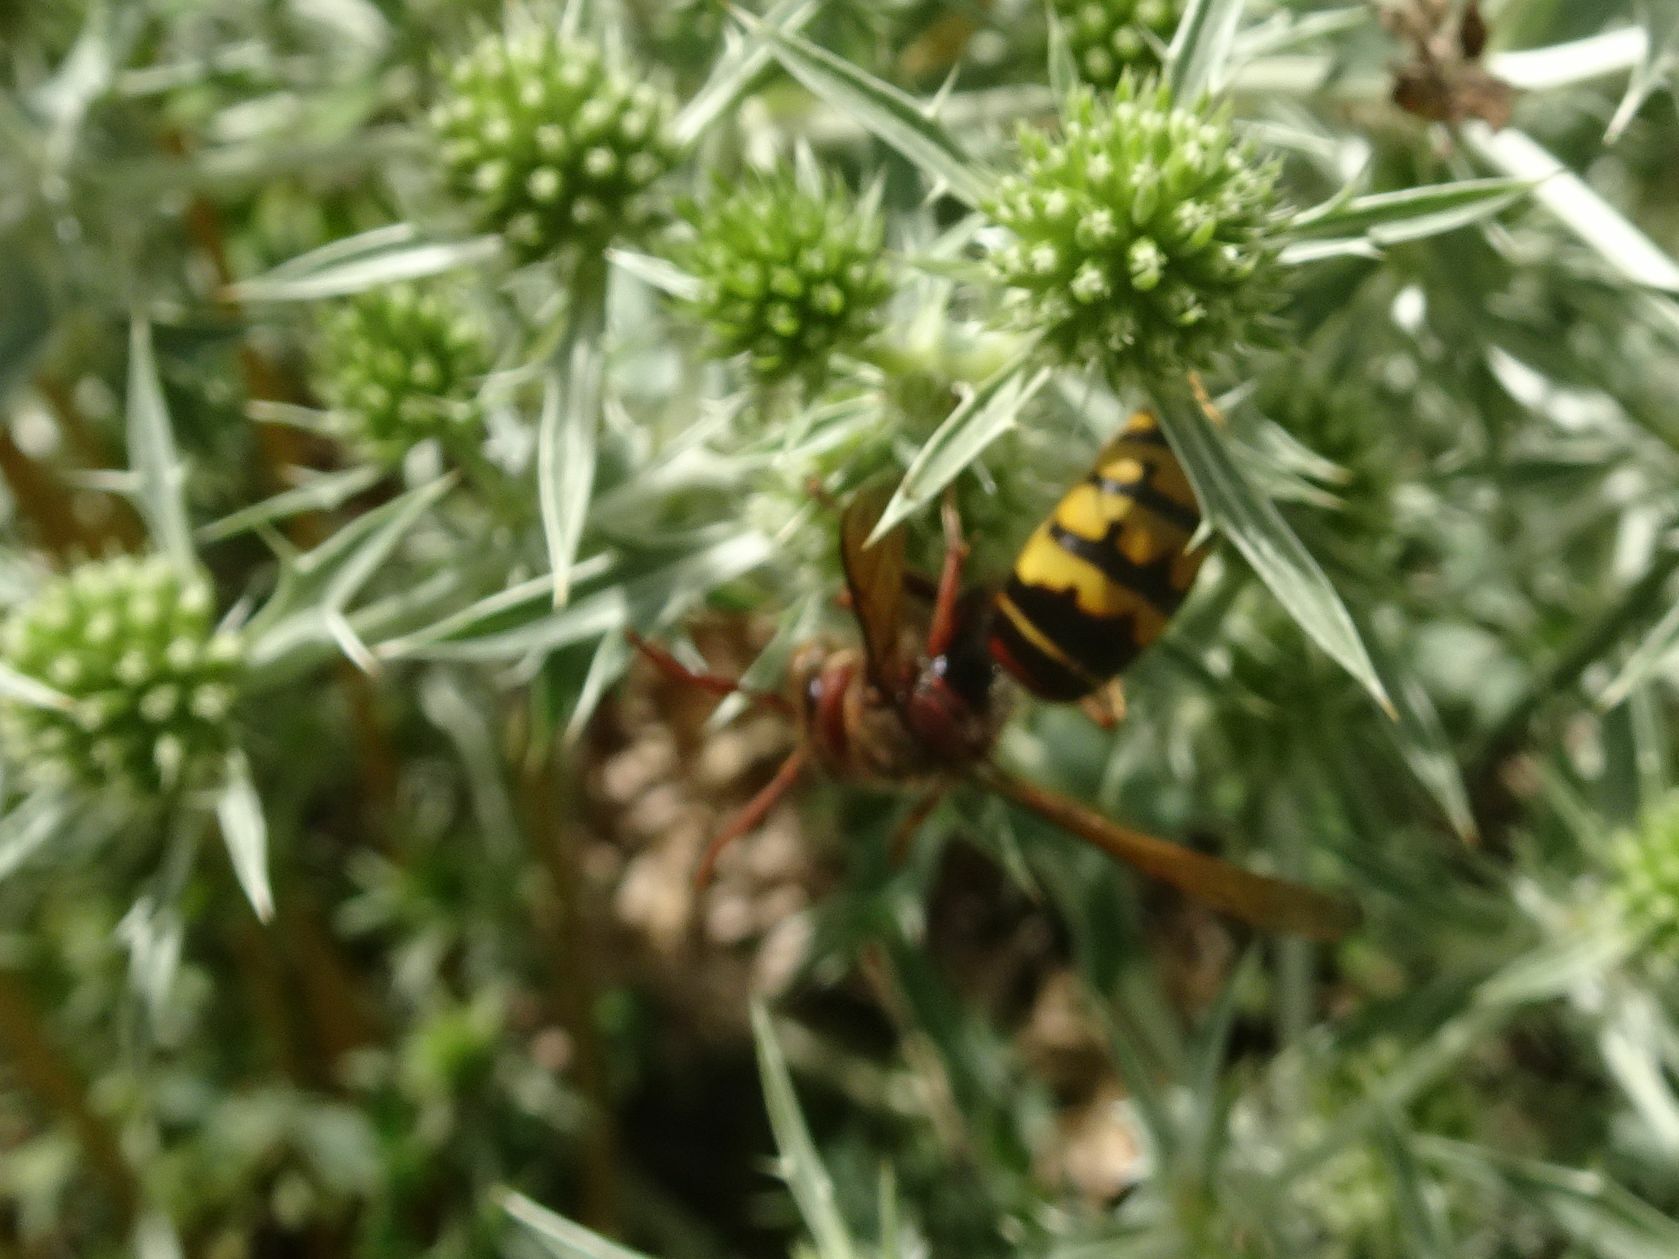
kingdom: Animalia
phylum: Arthropoda
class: Insecta
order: Hymenoptera
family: Vespidae
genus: Vespa
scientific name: Vespa crabro
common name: Hornet
